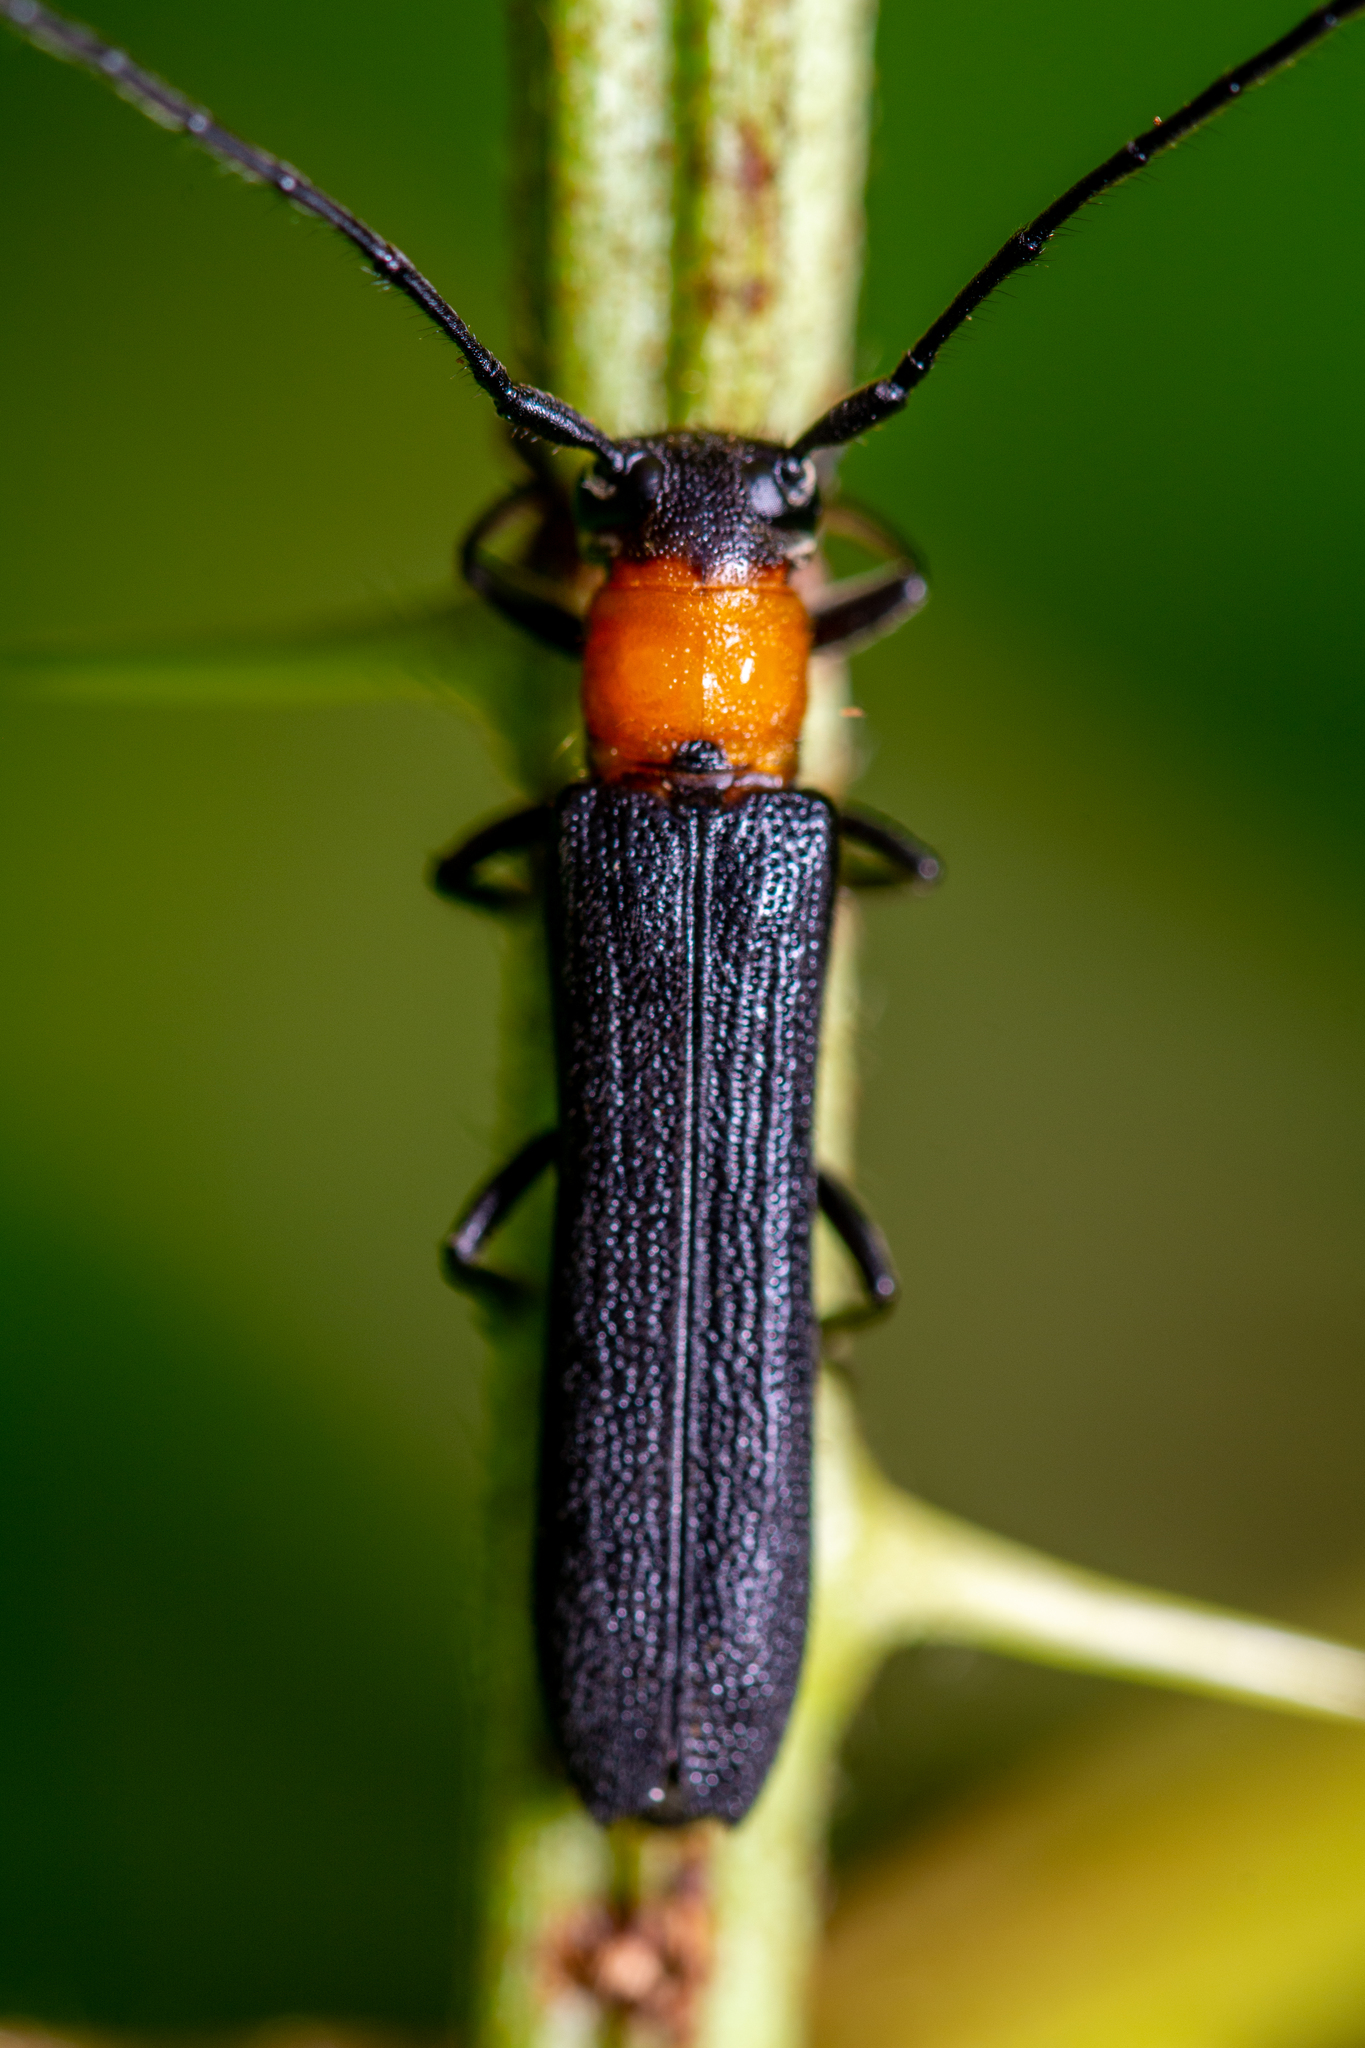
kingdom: Animalia
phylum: Arthropoda
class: Insecta
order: Coleoptera
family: Cerambycidae
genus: Oberea
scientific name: Oberea perspicillata
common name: Raspberry cane borer
